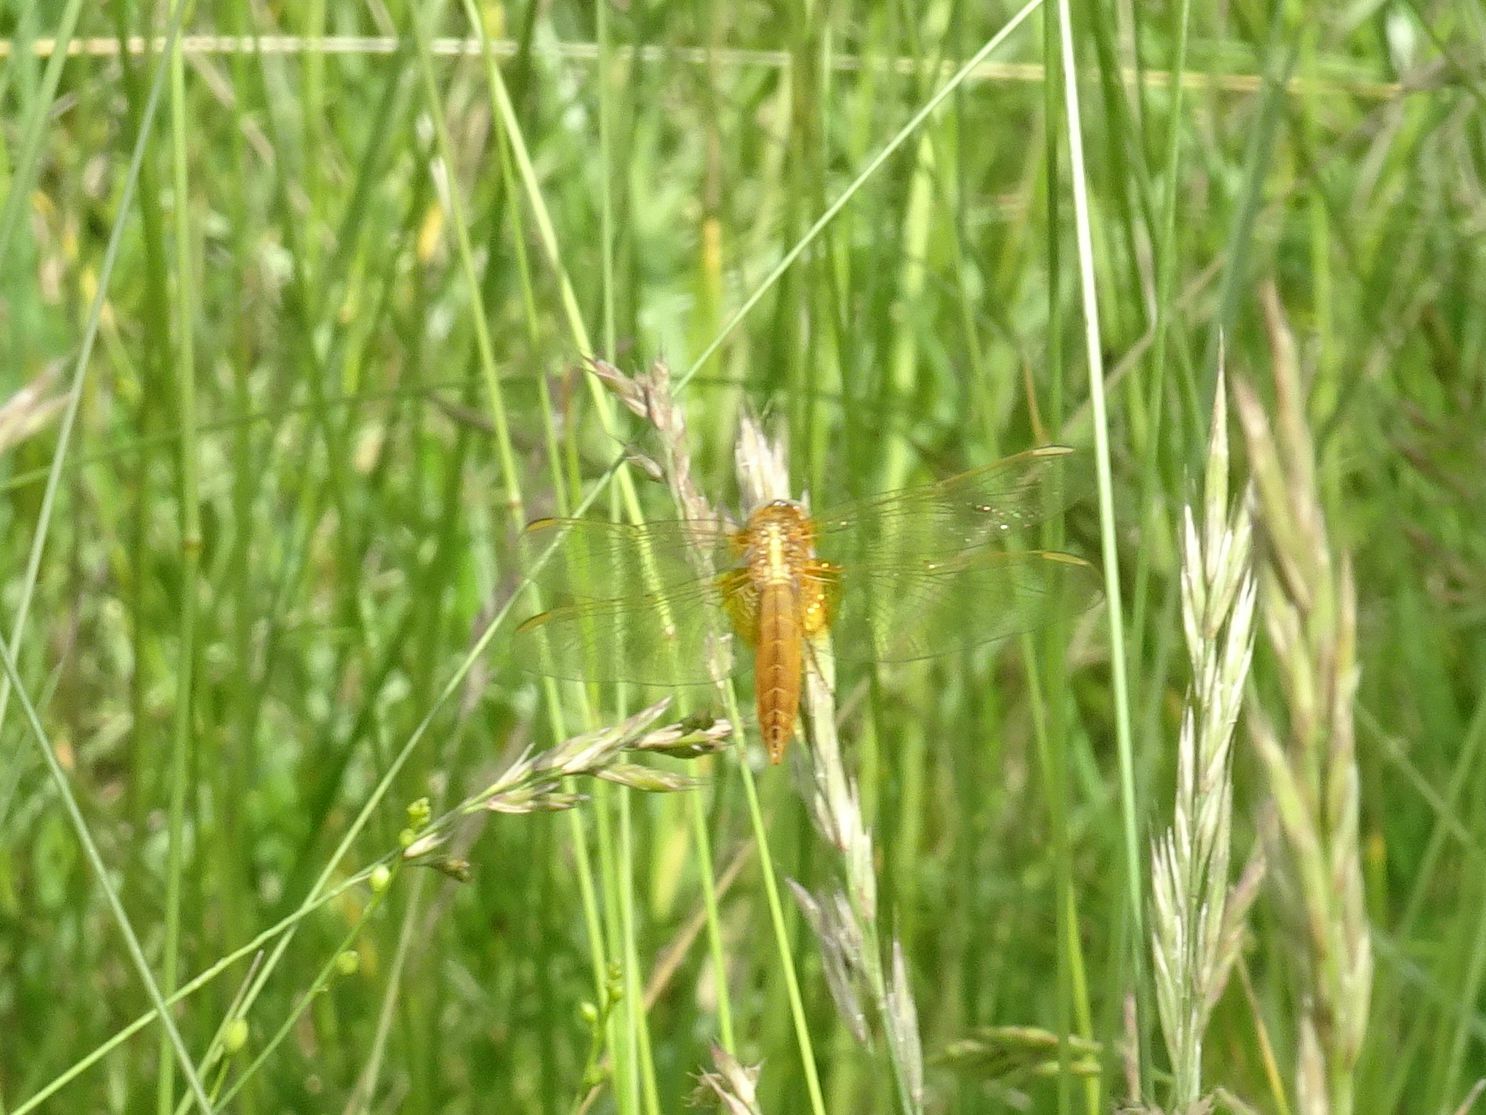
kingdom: Animalia
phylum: Arthropoda
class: Insecta
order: Odonata
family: Libellulidae
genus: Crocothemis
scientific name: Crocothemis erythraea
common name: Scarlet dragonfly
